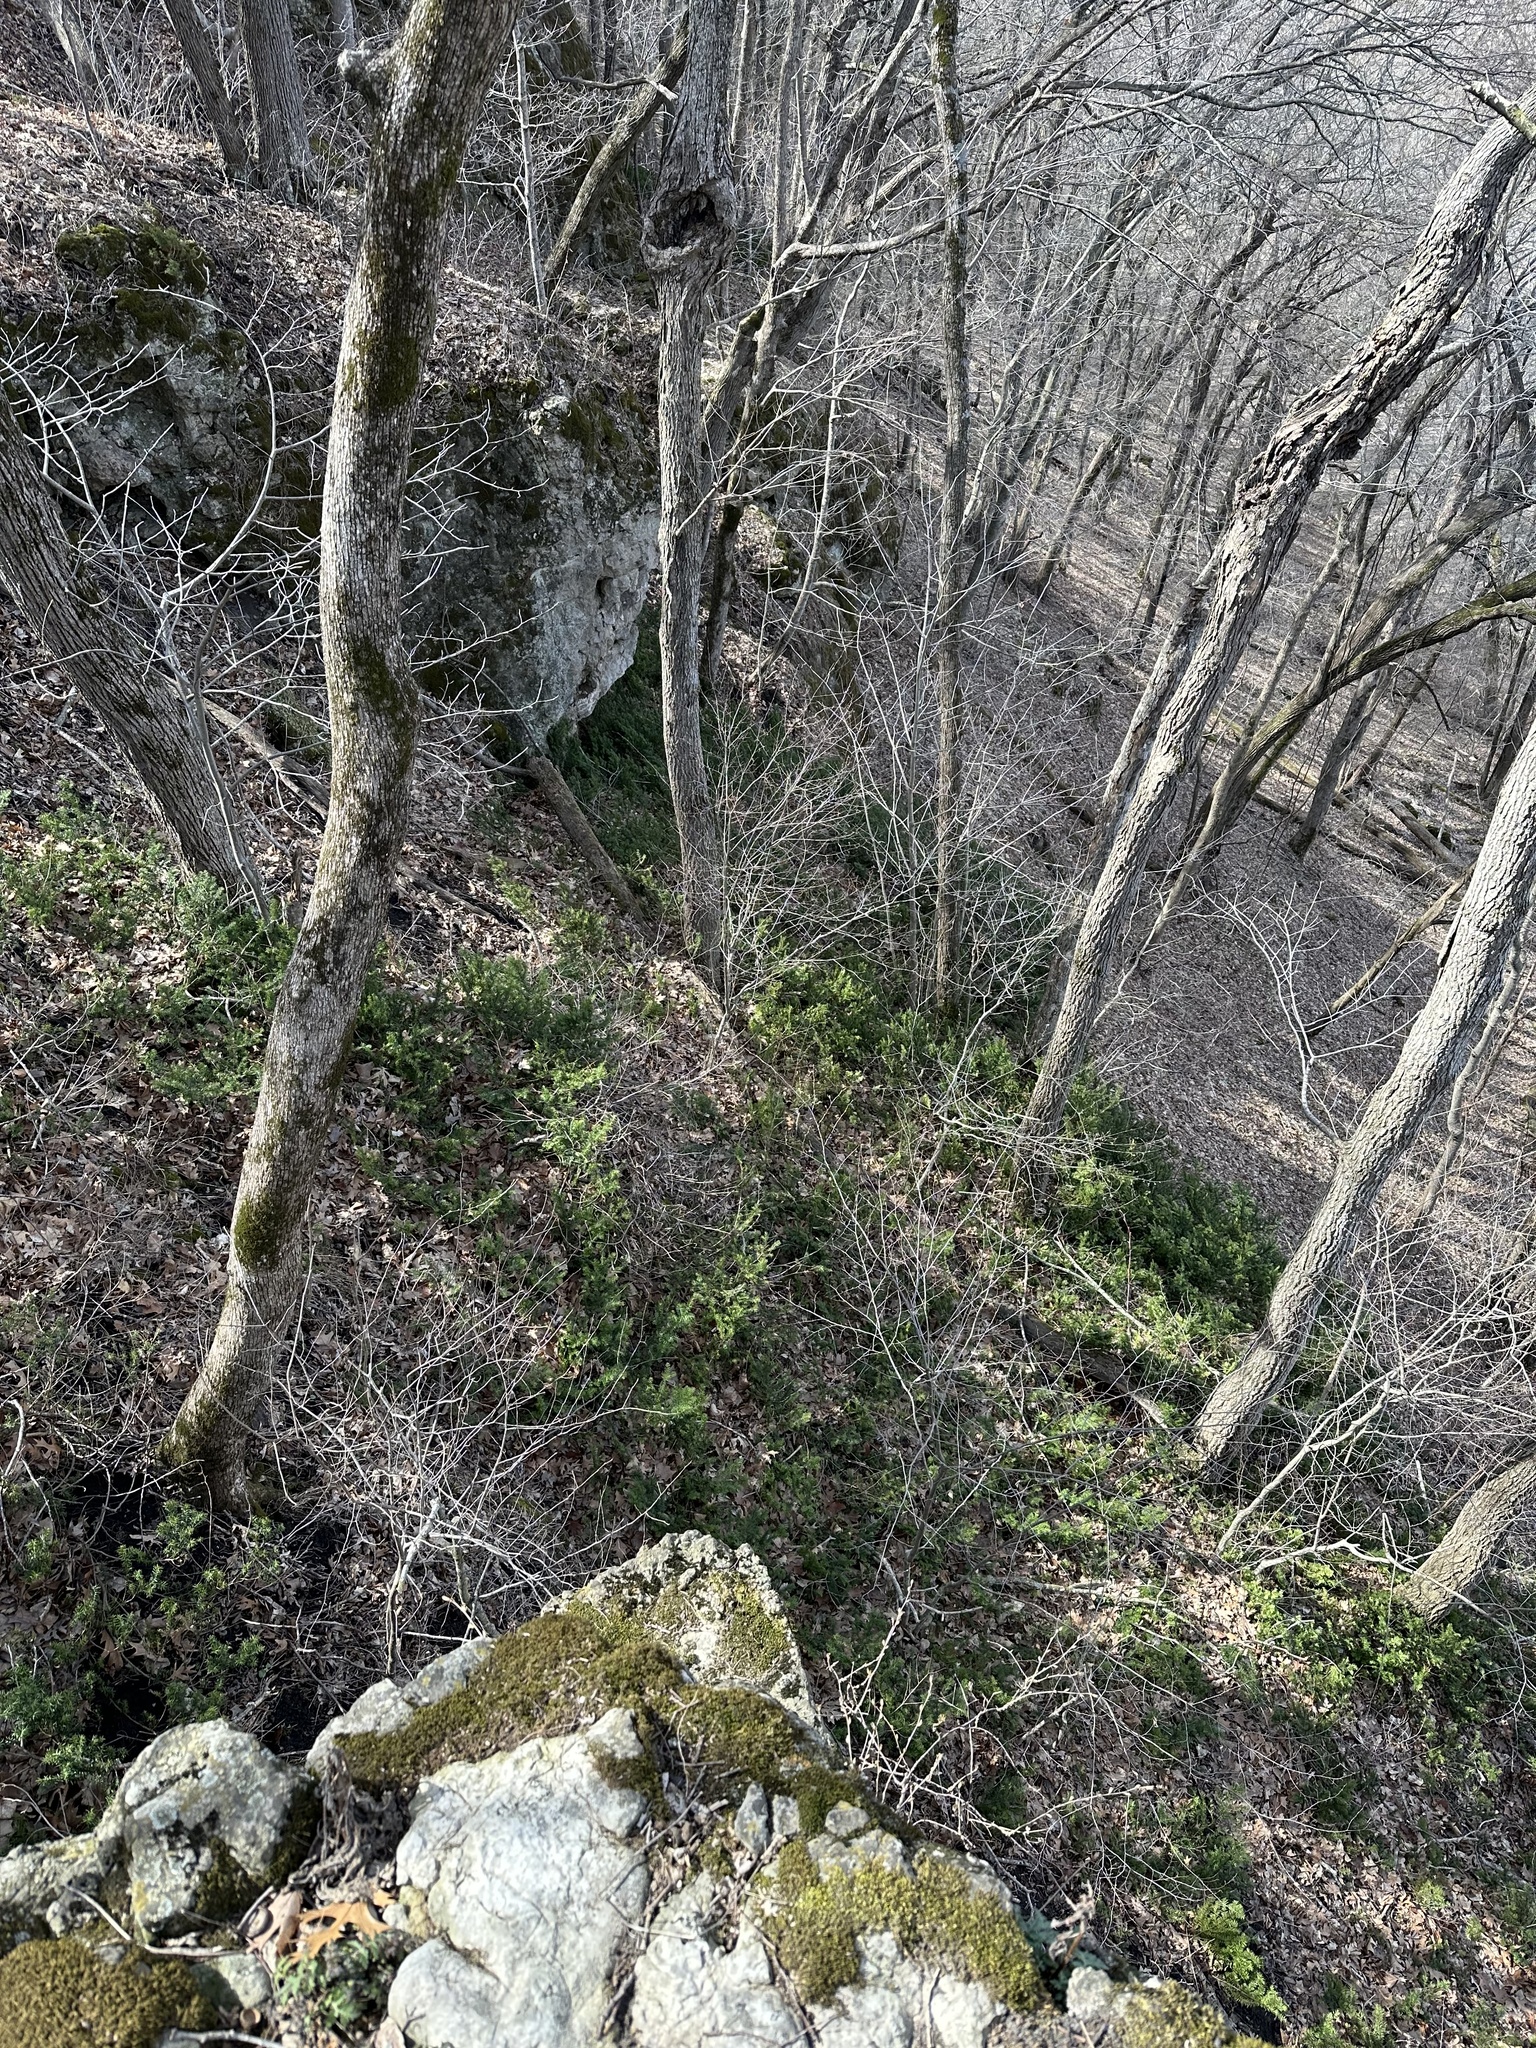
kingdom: Plantae
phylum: Tracheophyta
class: Pinopsida
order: Pinales
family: Taxaceae
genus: Taxus
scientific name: Taxus canadensis
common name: American yew
